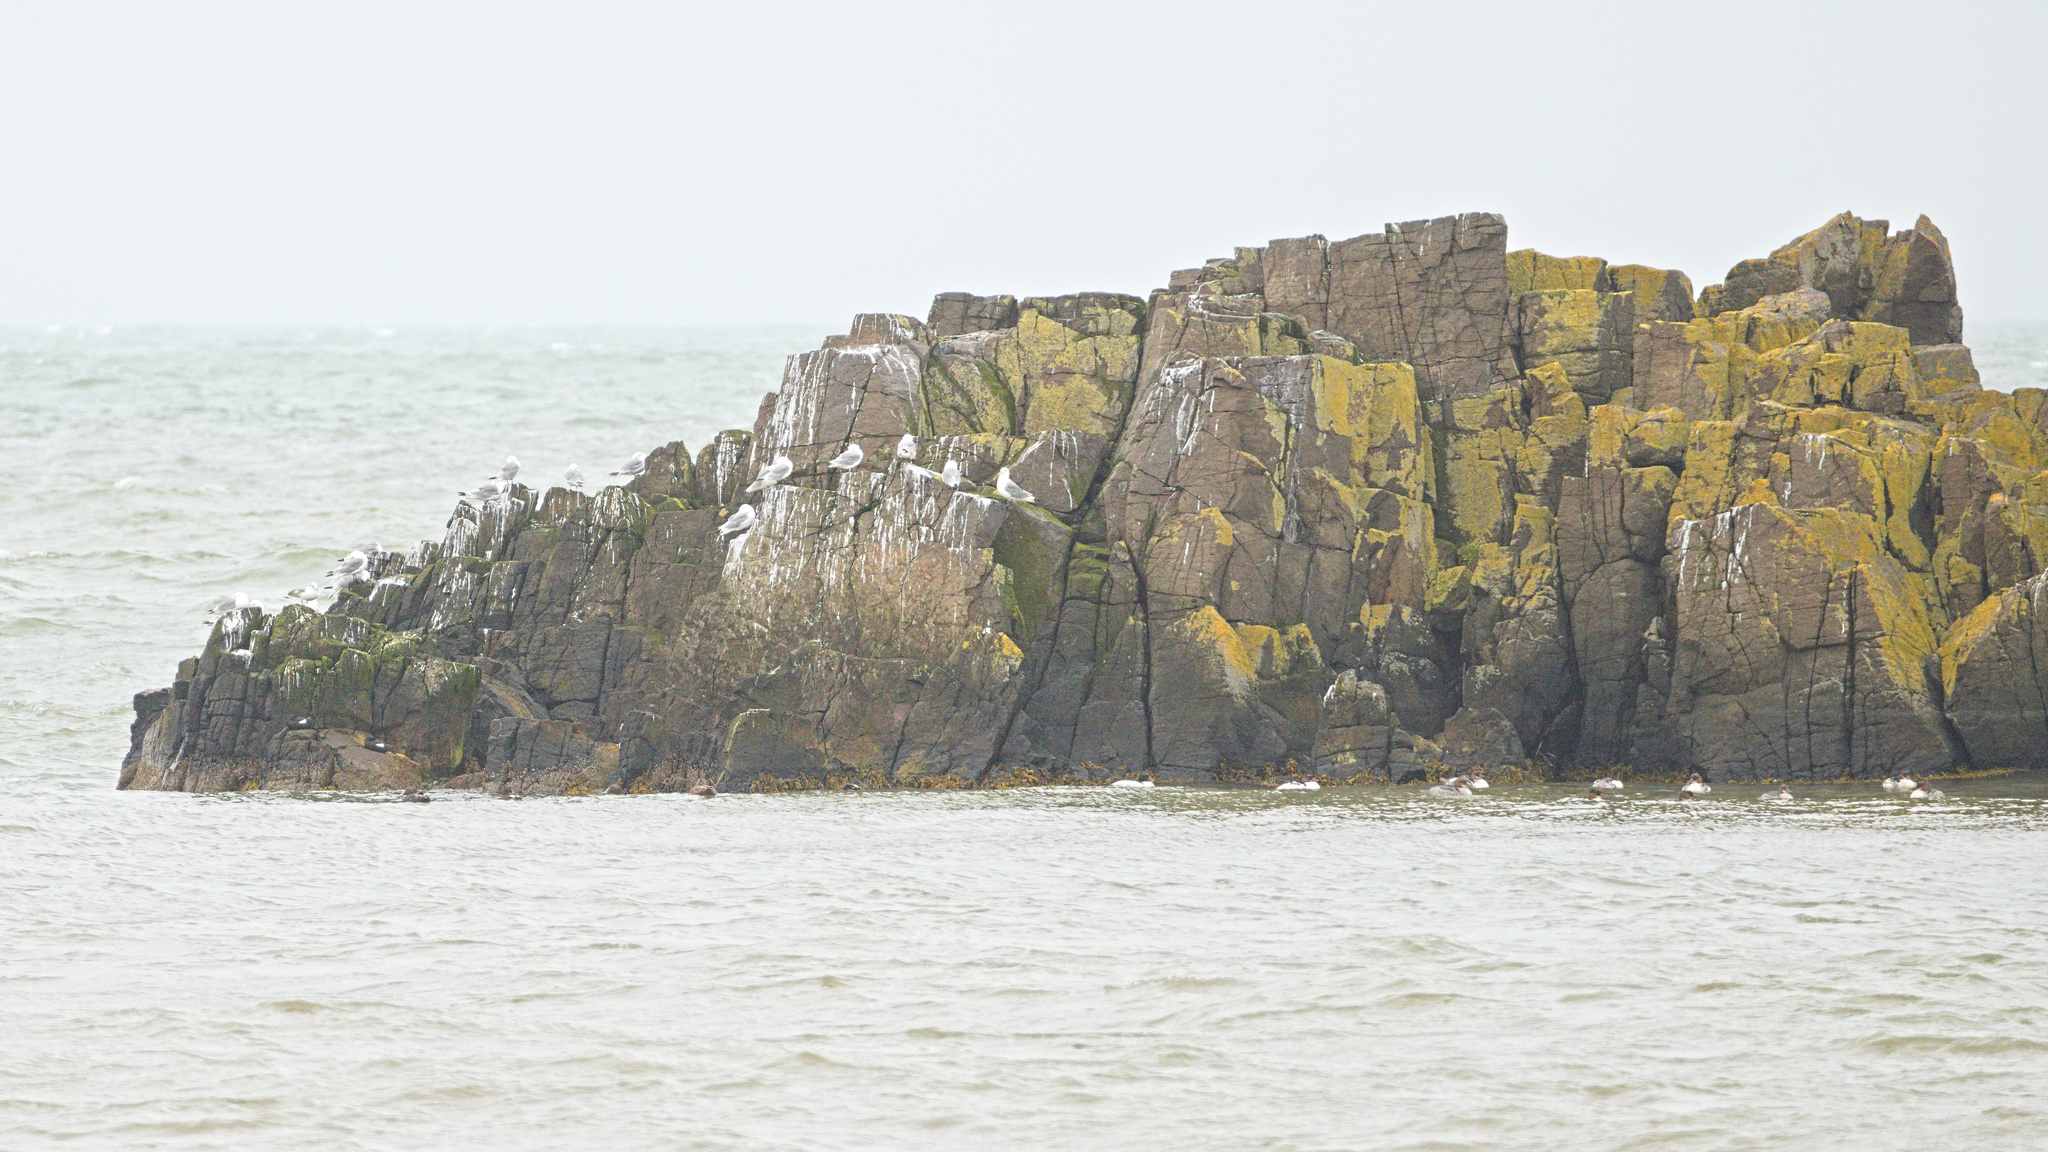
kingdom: Animalia
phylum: Chordata
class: Aves
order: Charadriiformes
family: Alcidae
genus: Cepphus
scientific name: Cepphus grylle
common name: Black guillemot
